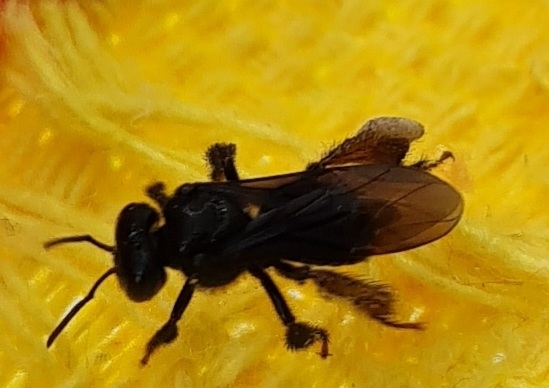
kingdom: Animalia
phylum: Arthropoda
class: Insecta
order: Hymenoptera
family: Apidae
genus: Trigona
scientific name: Trigona spinipes
